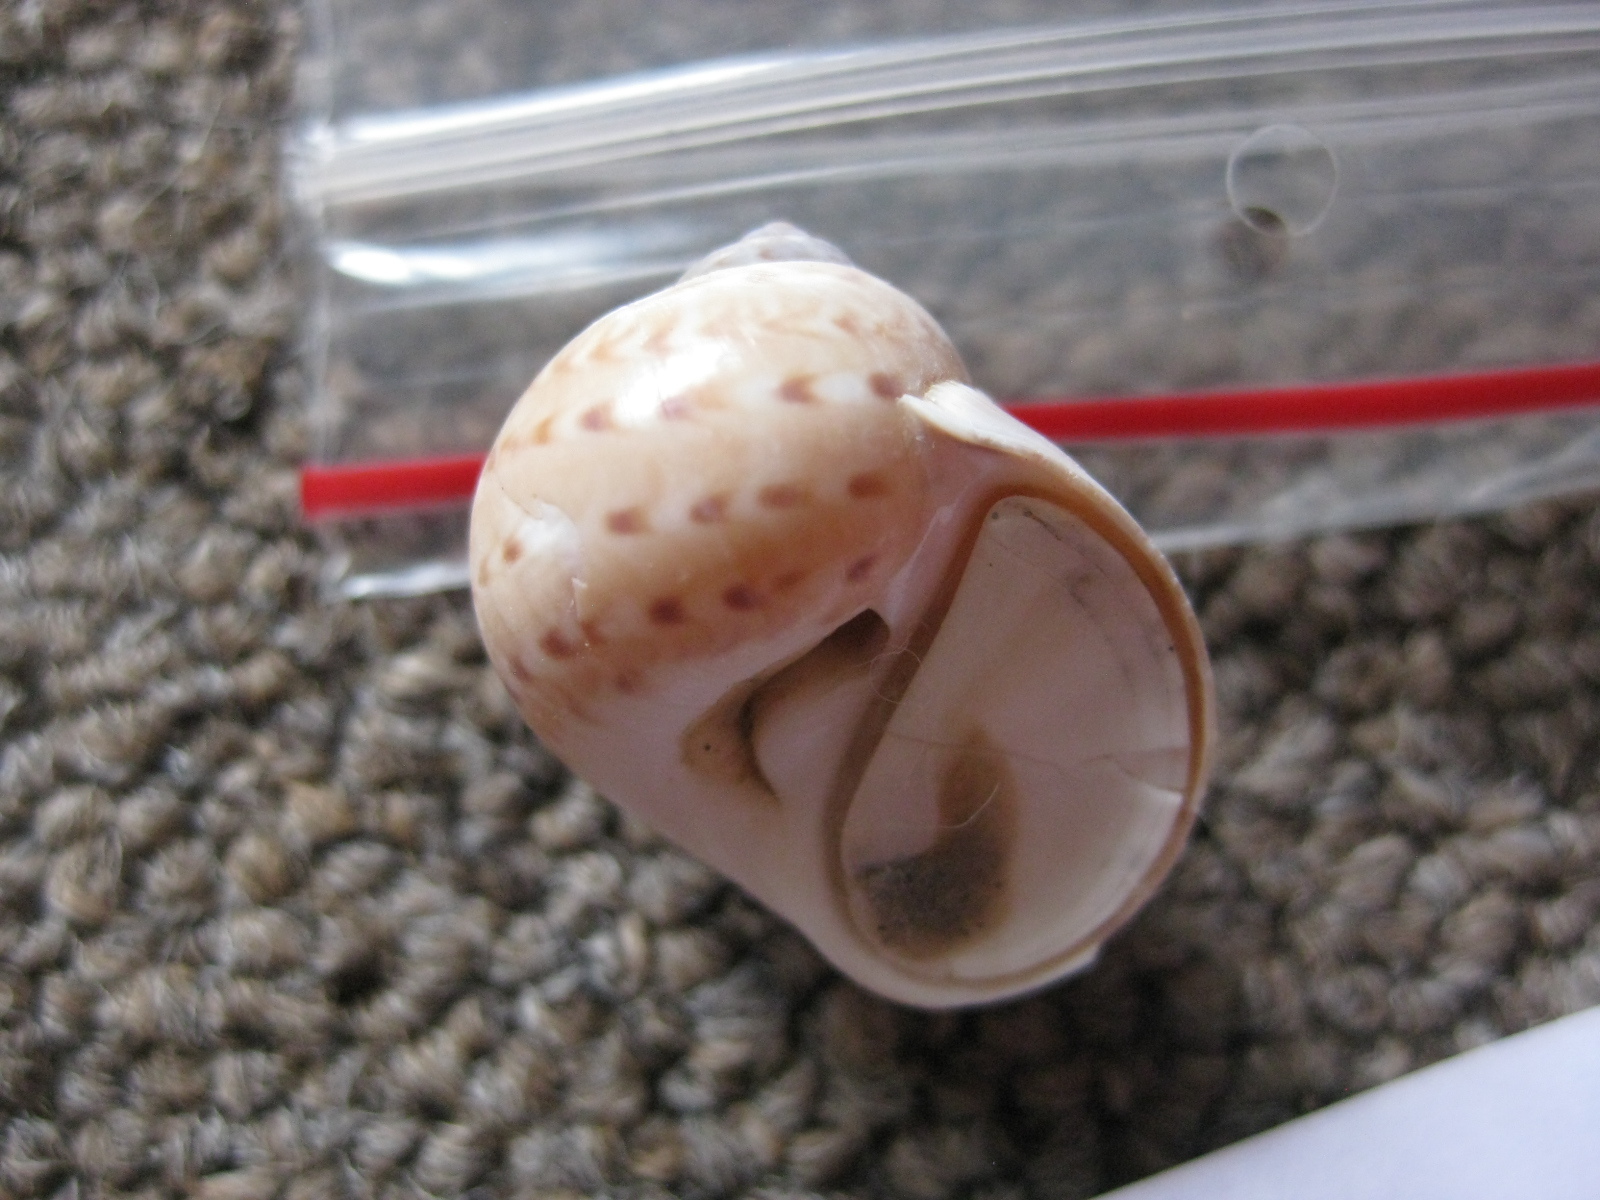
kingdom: Animalia
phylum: Mollusca
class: Gastropoda
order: Littorinimorpha
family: Naticidae
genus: Tanea
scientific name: Tanea zelandica
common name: New zealand moonsnail
